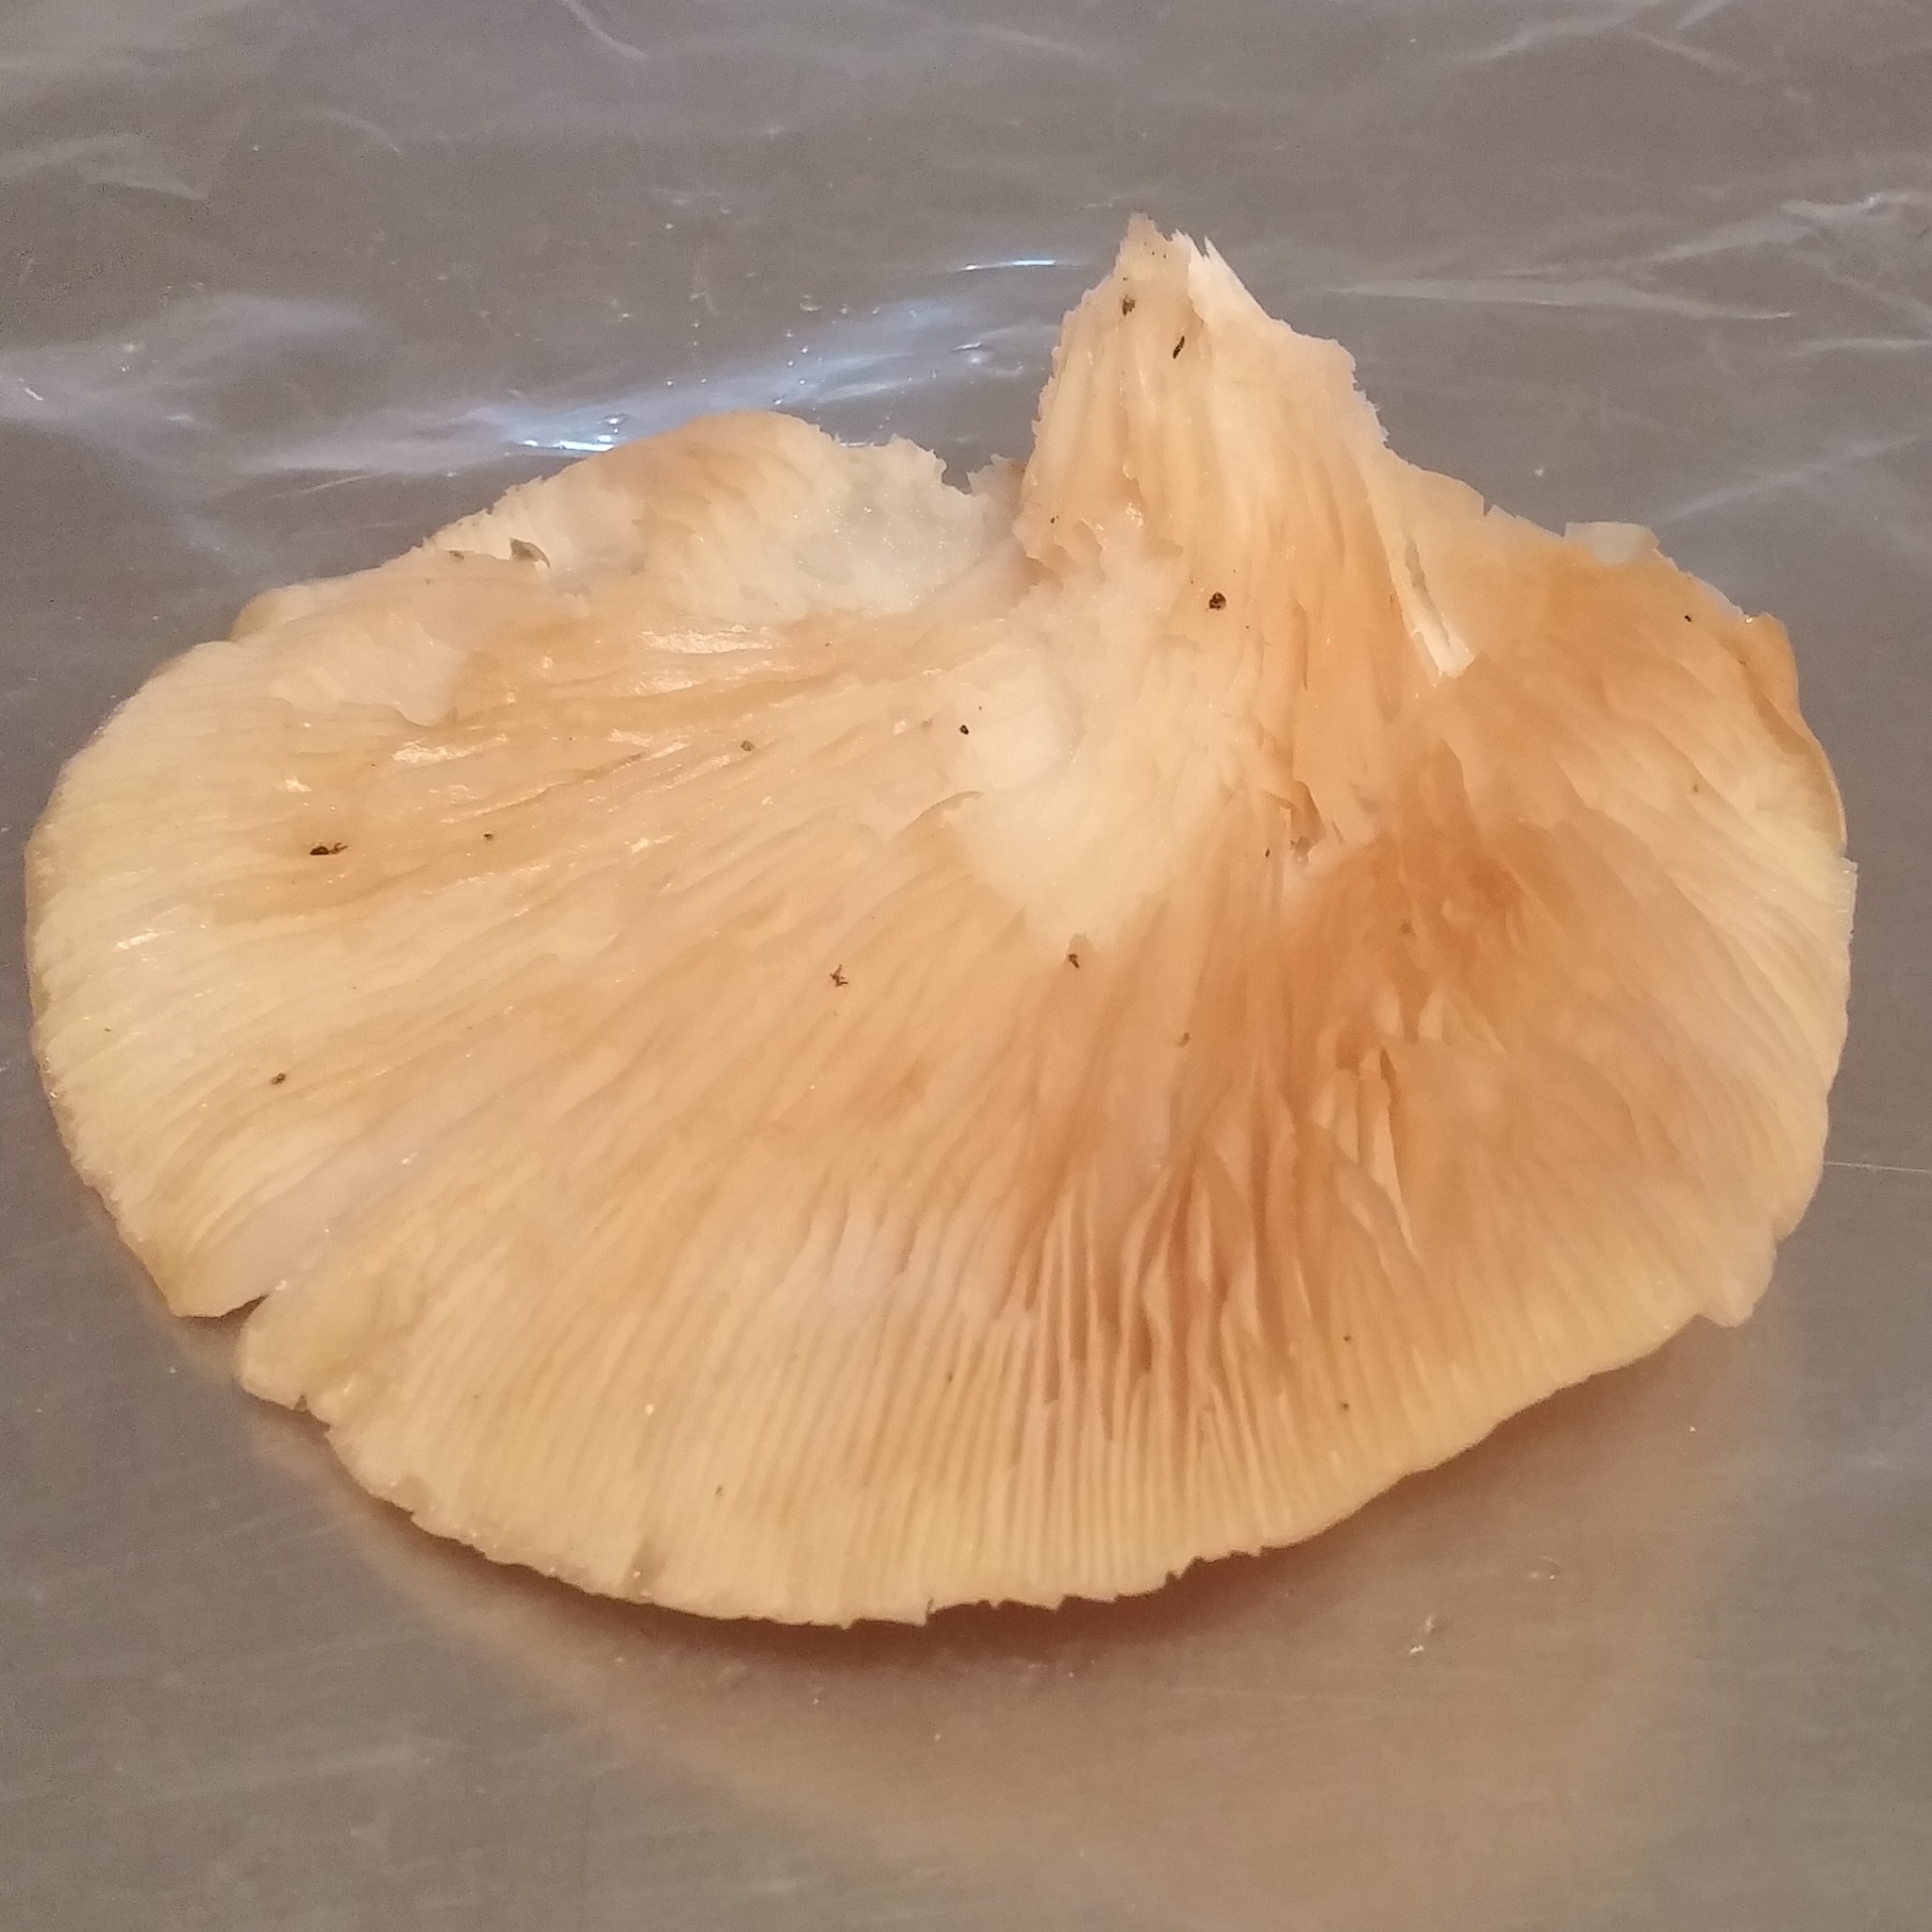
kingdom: Fungi
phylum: Basidiomycota
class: Agaricomycetes
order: Agaricales
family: Pleurotaceae
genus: Pleurotus
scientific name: Pleurotus ostreatus
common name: Oyster mushroom
